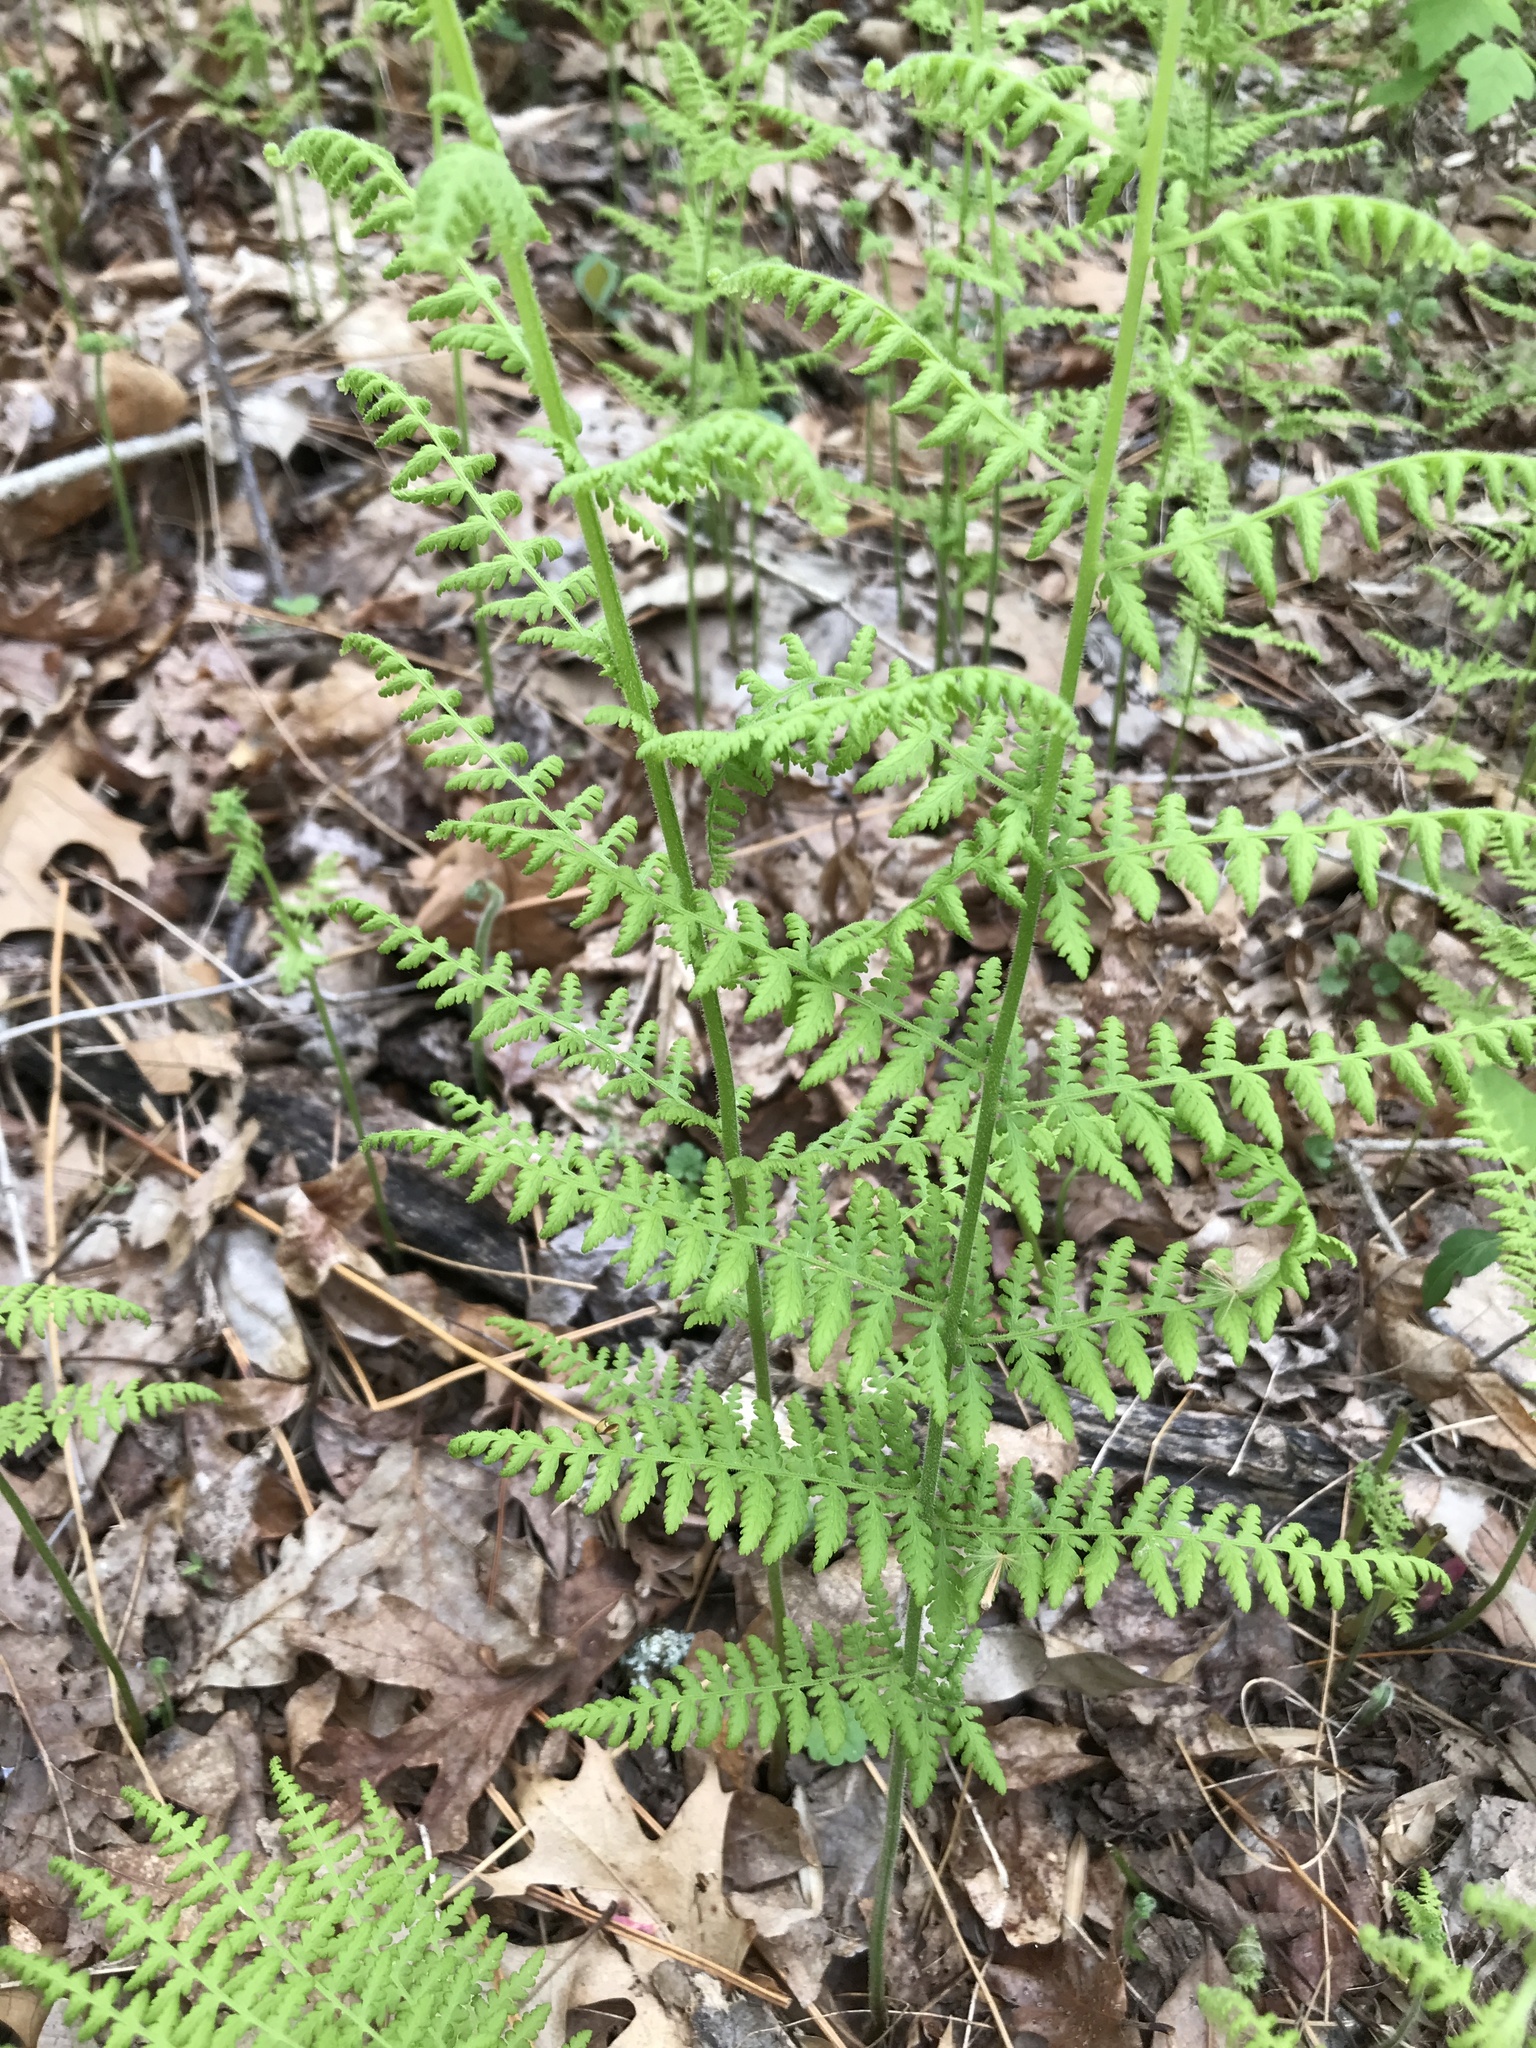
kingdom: Plantae
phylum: Tracheophyta
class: Polypodiopsida
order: Polypodiales
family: Dennstaedtiaceae
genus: Sitobolium
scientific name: Sitobolium punctilobum
